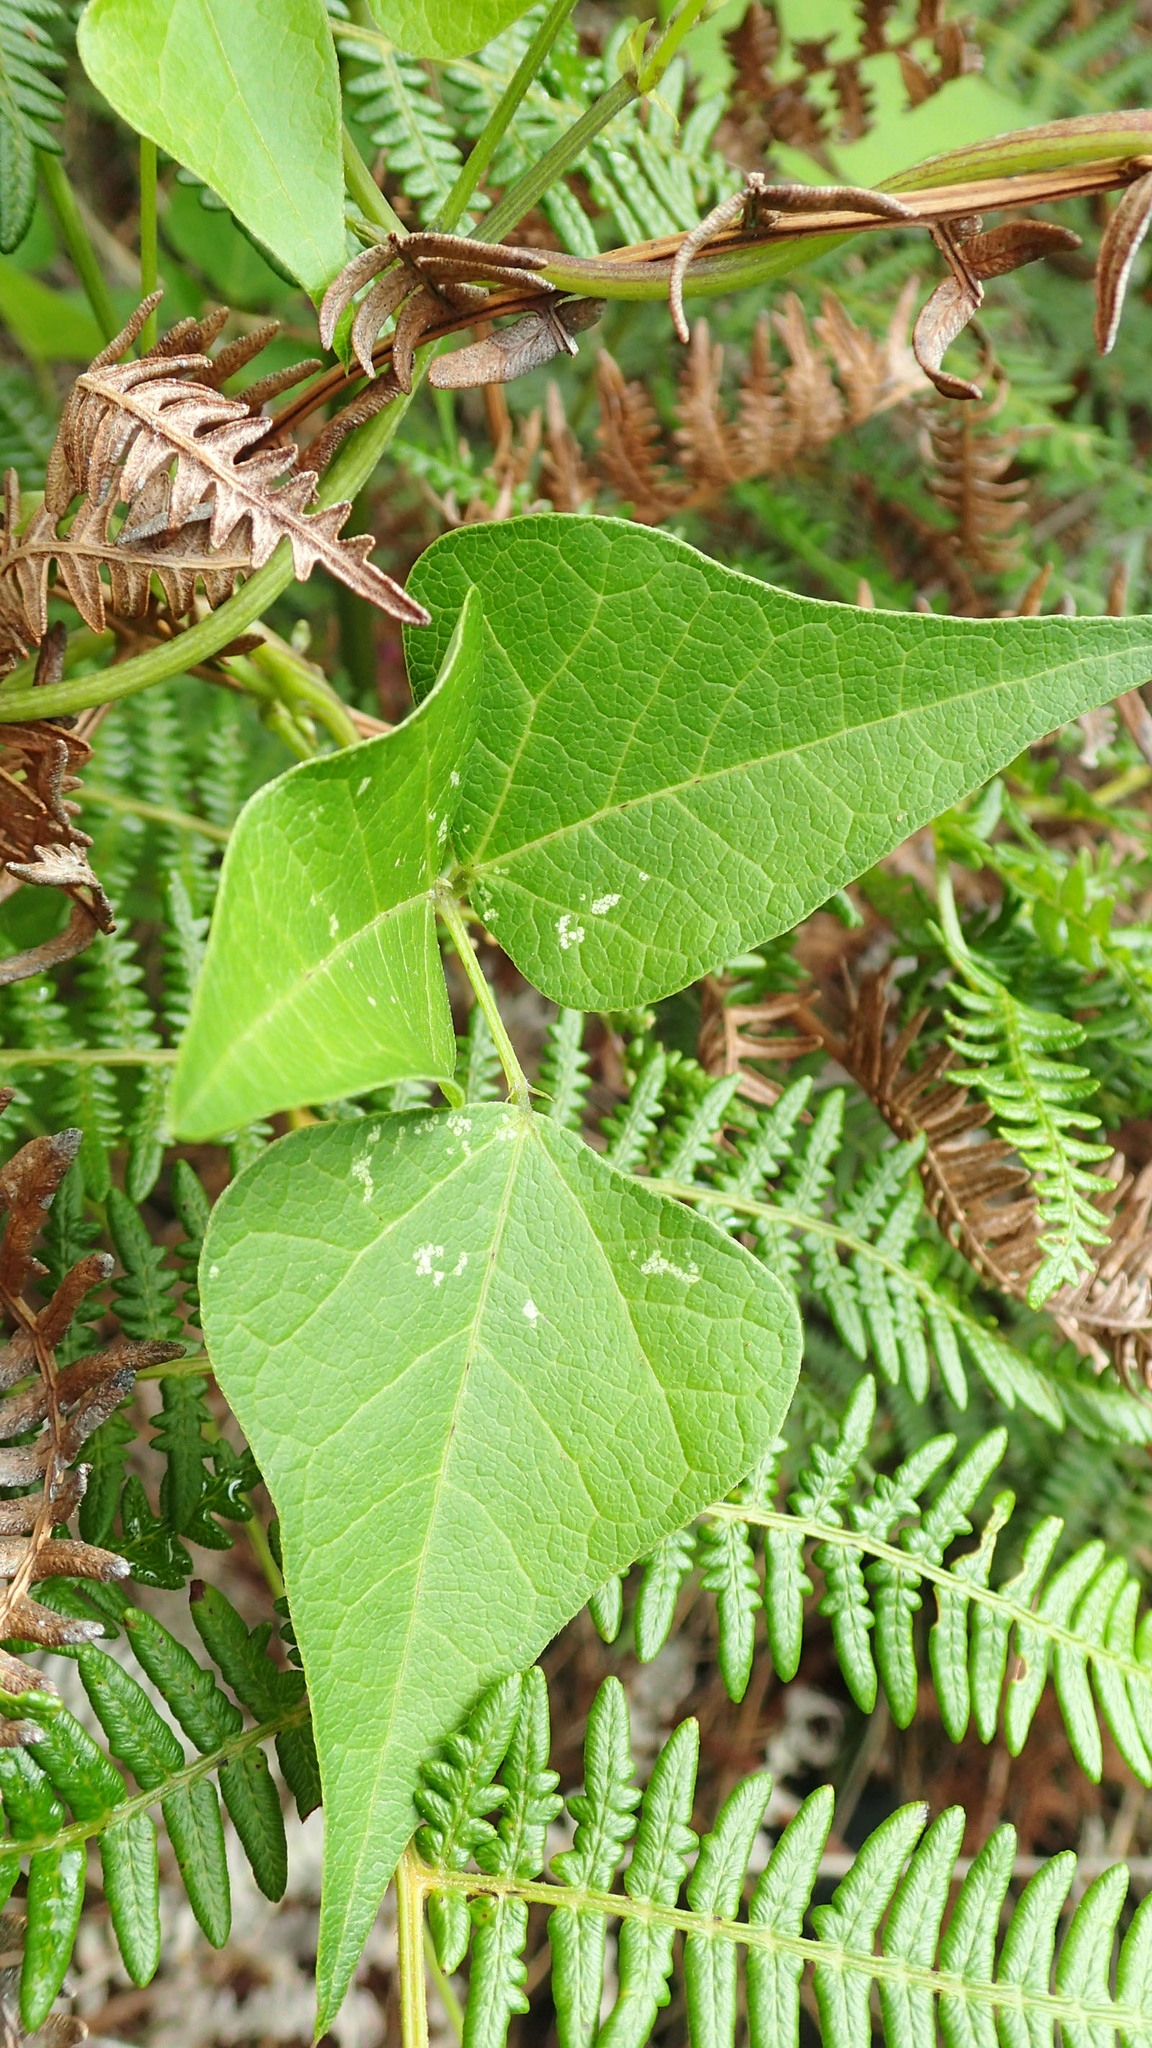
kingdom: Plantae
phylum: Tracheophyta
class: Magnoliopsida
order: Fabales
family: Fabaceae
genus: Dipogon
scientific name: Dipogon lignosus
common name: Okie bean
